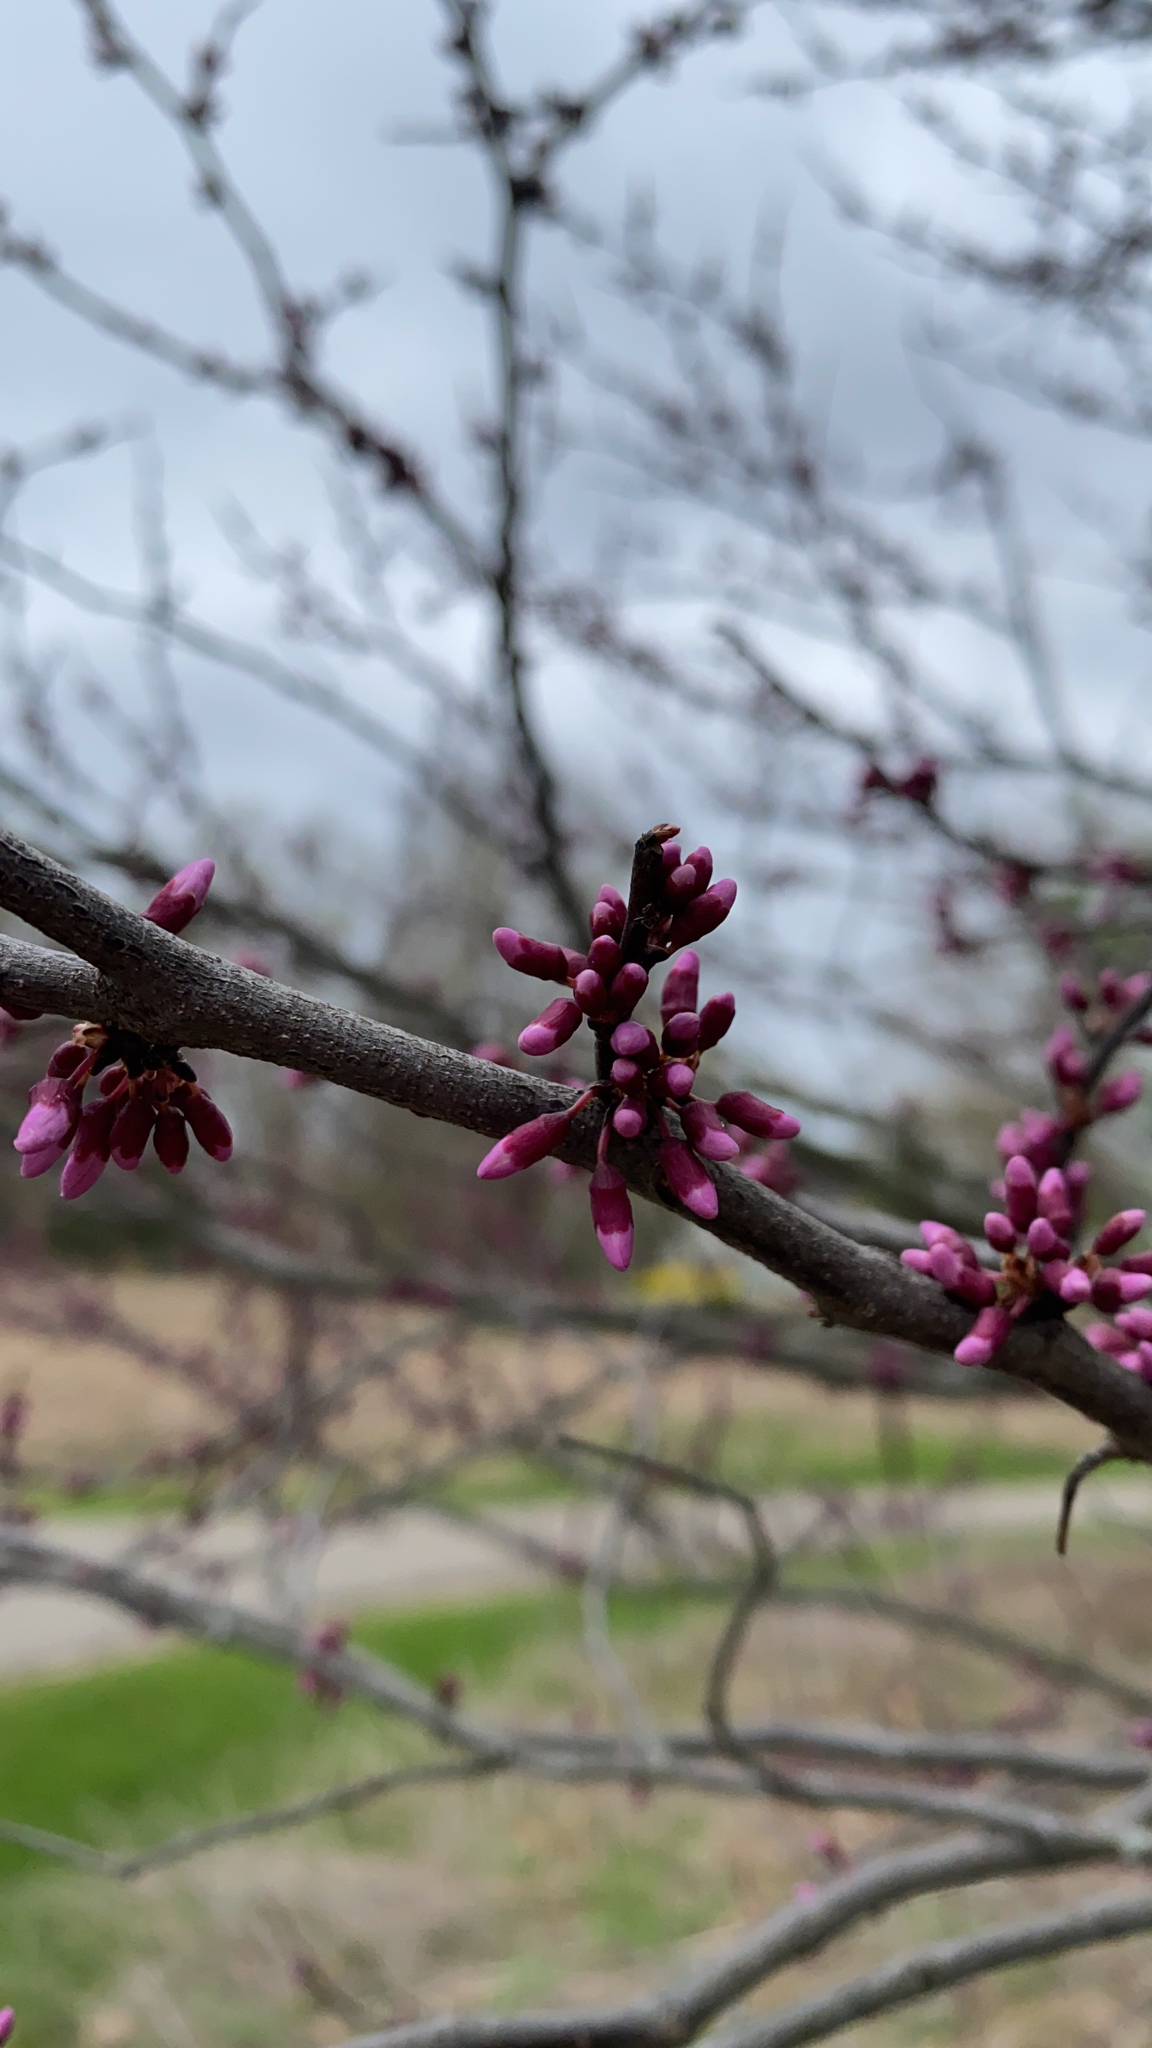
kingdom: Plantae
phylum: Tracheophyta
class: Magnoliopsida
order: Fabales
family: Fabaceae
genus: Cercis
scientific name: Cercis canadensis
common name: Eastern redbud
